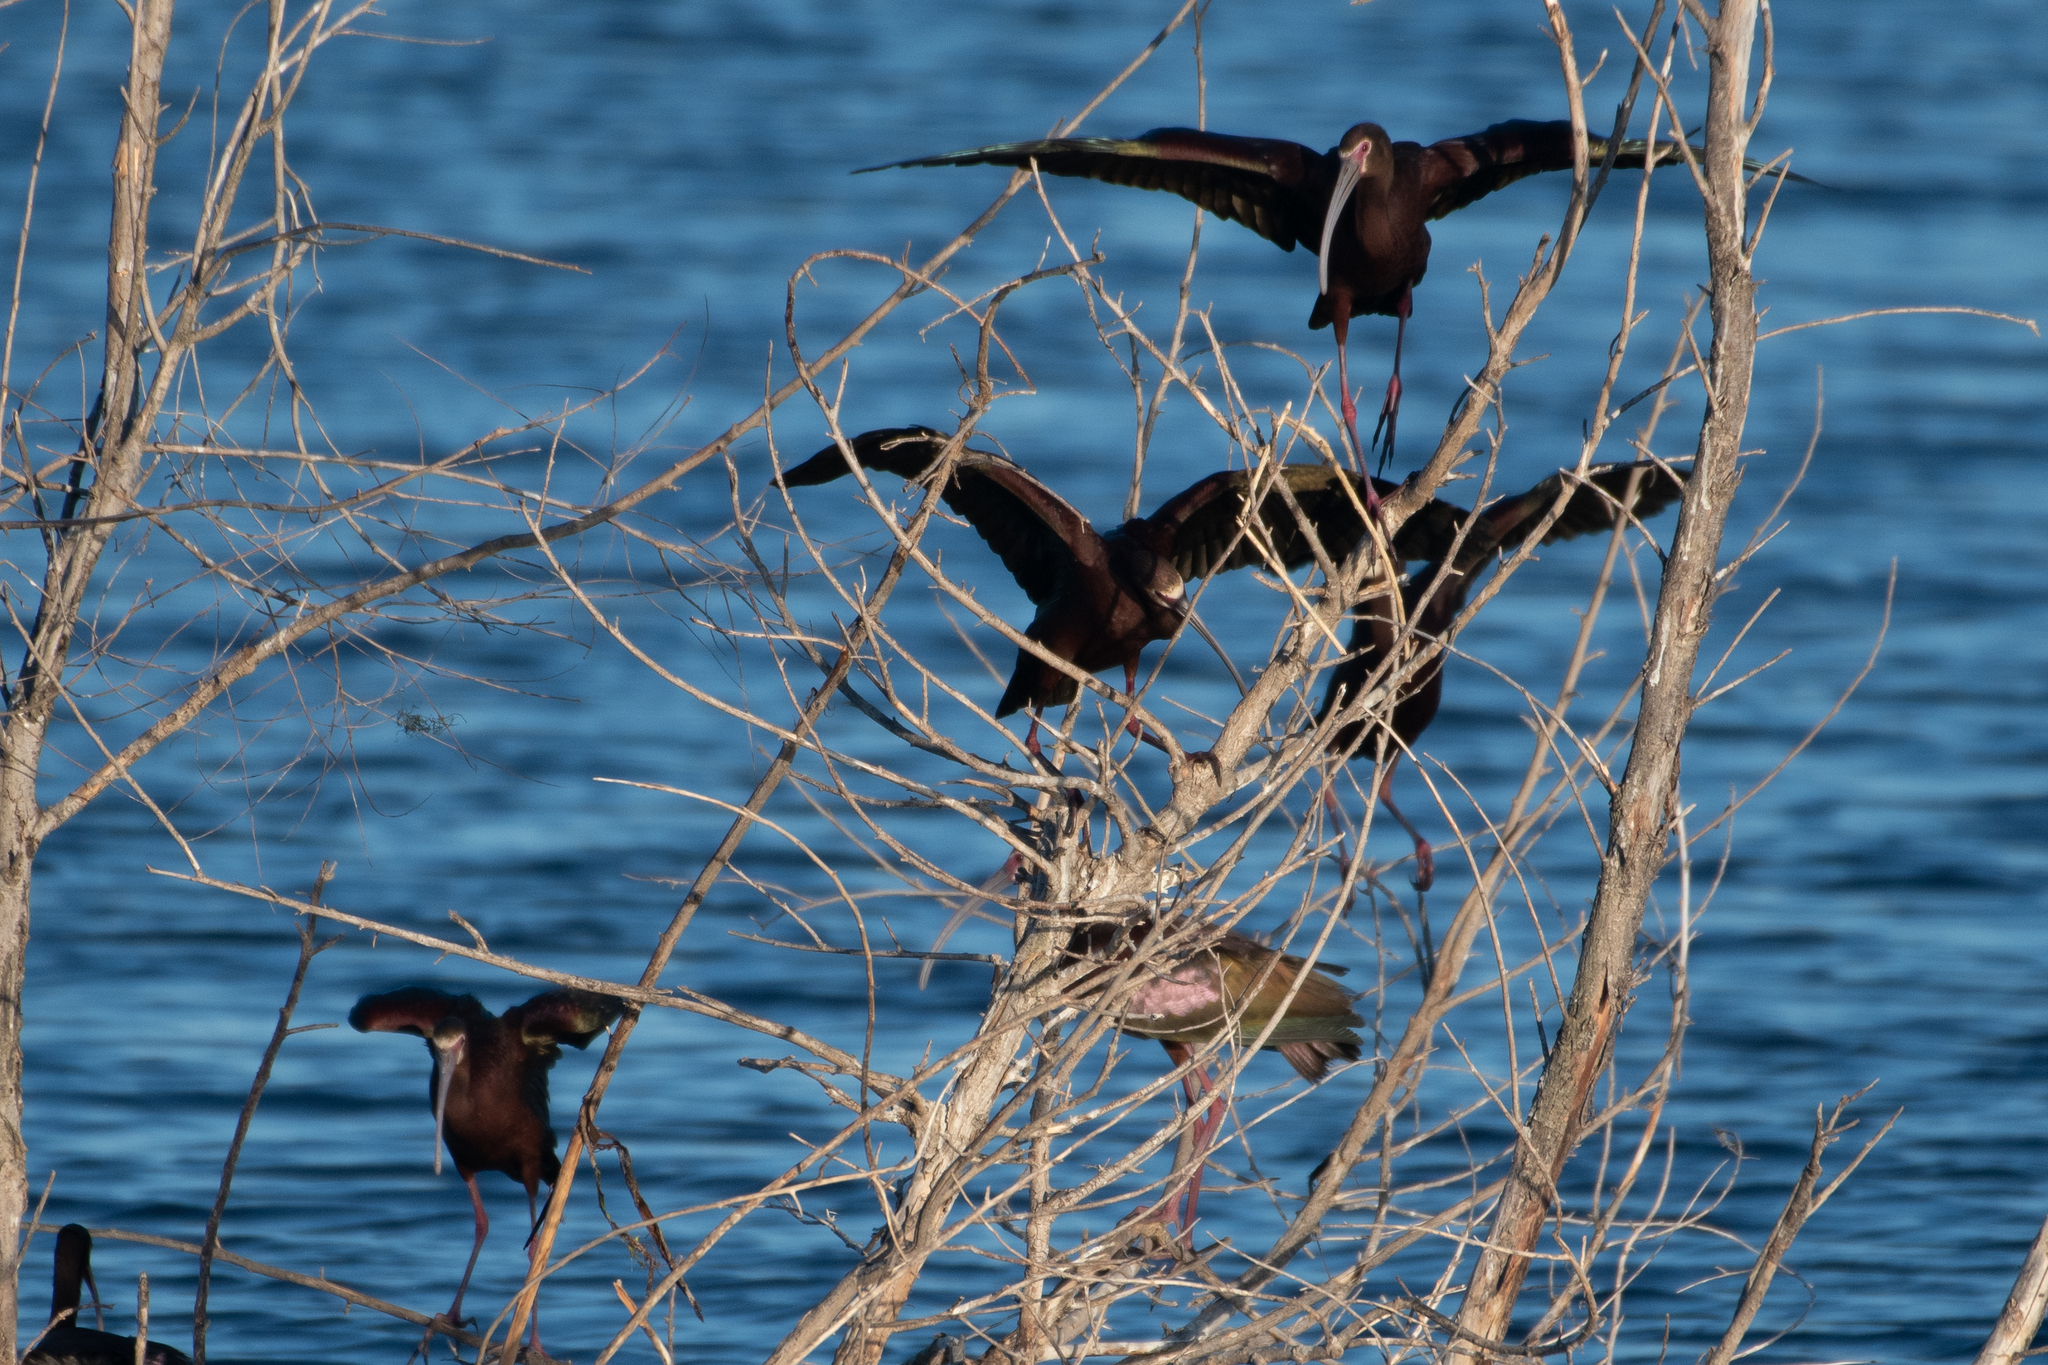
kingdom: Animalia
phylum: Chordata
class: Aves
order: Pelecaniformes
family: Threskiornithidae
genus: Plegadis
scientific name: Plegadis chihi
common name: White-faced ibis
